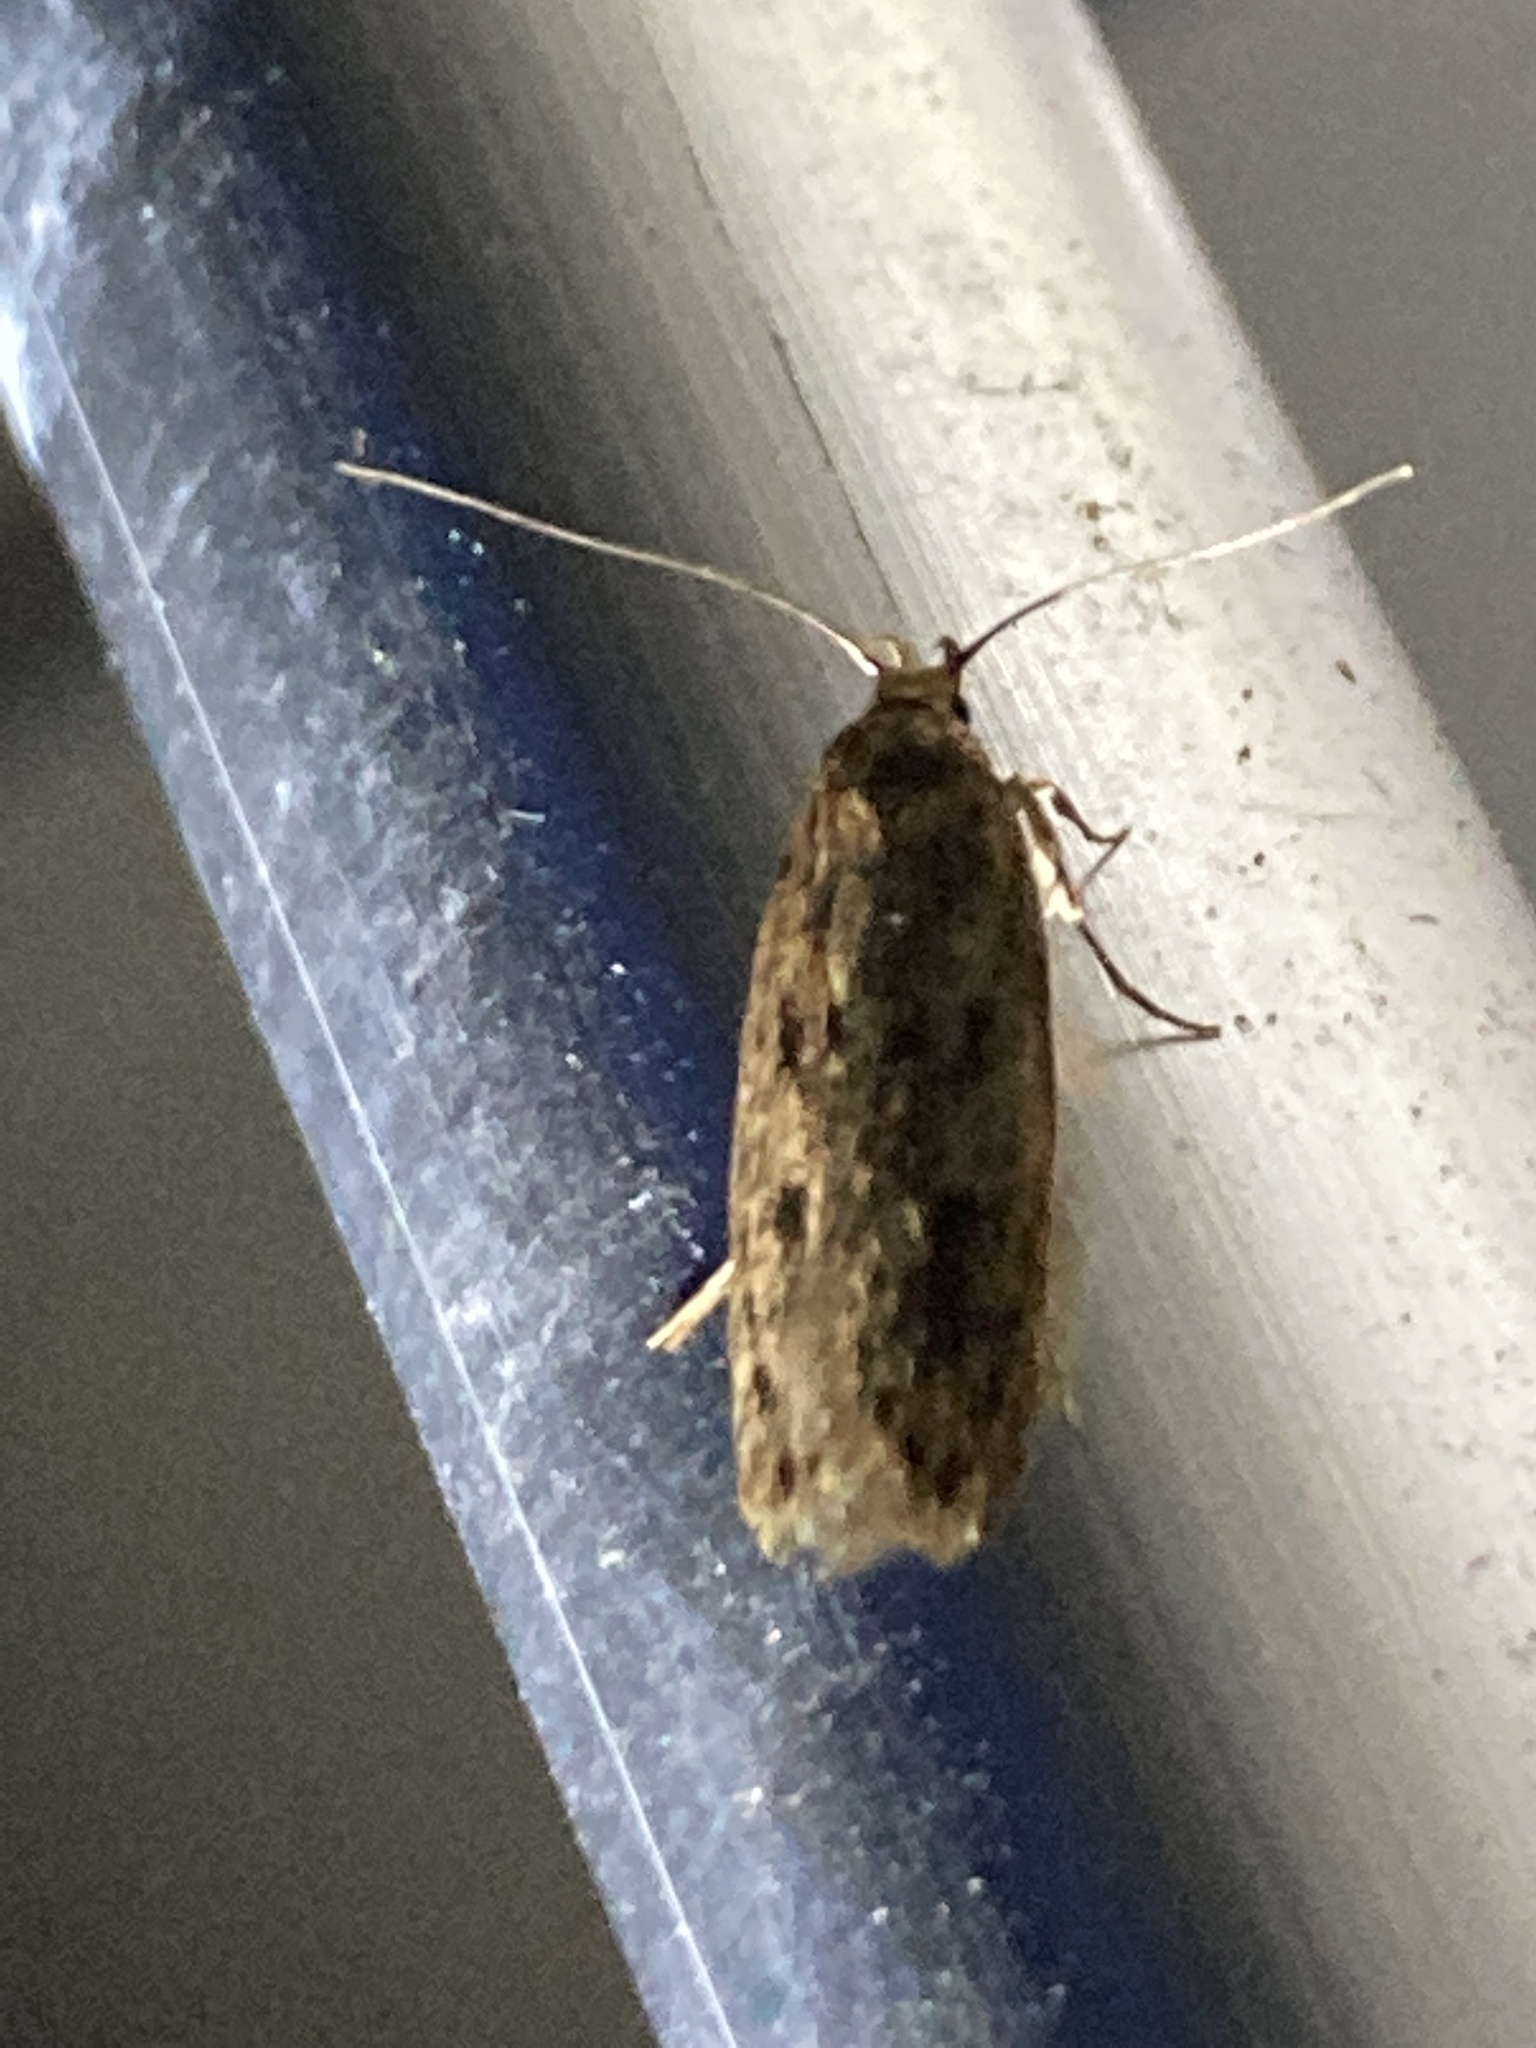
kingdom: Animalia
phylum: Arthropoda
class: Insecta
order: Lepidoptera
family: Oecophoridae
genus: Hofmannophila
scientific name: Hofmannophila pseudospretella
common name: Brown house moth
